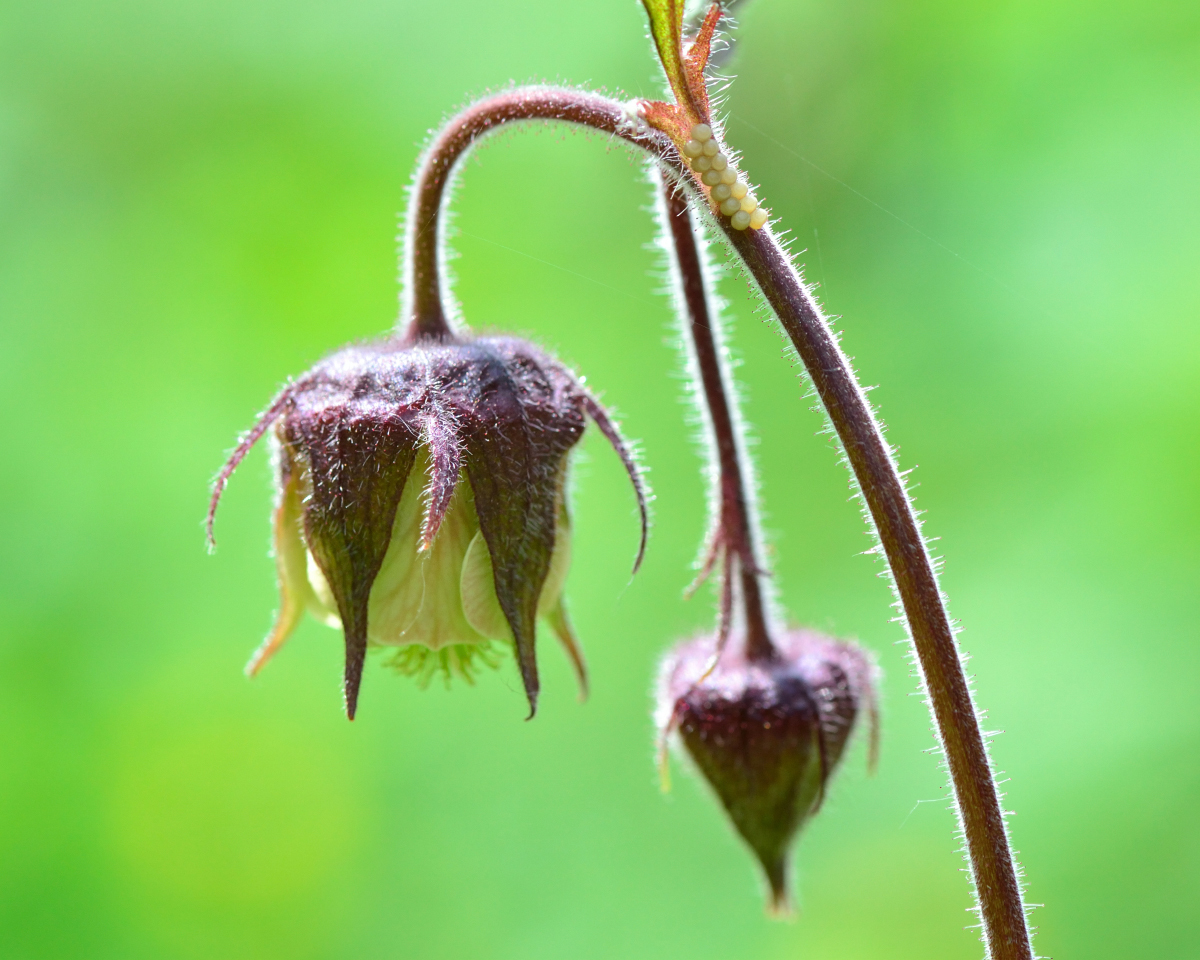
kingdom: Plantae
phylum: Tracheophyta
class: Magnoliopsida
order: Rosales
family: Rosaceae
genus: Geum
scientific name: Geum rivale
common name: Water avens
